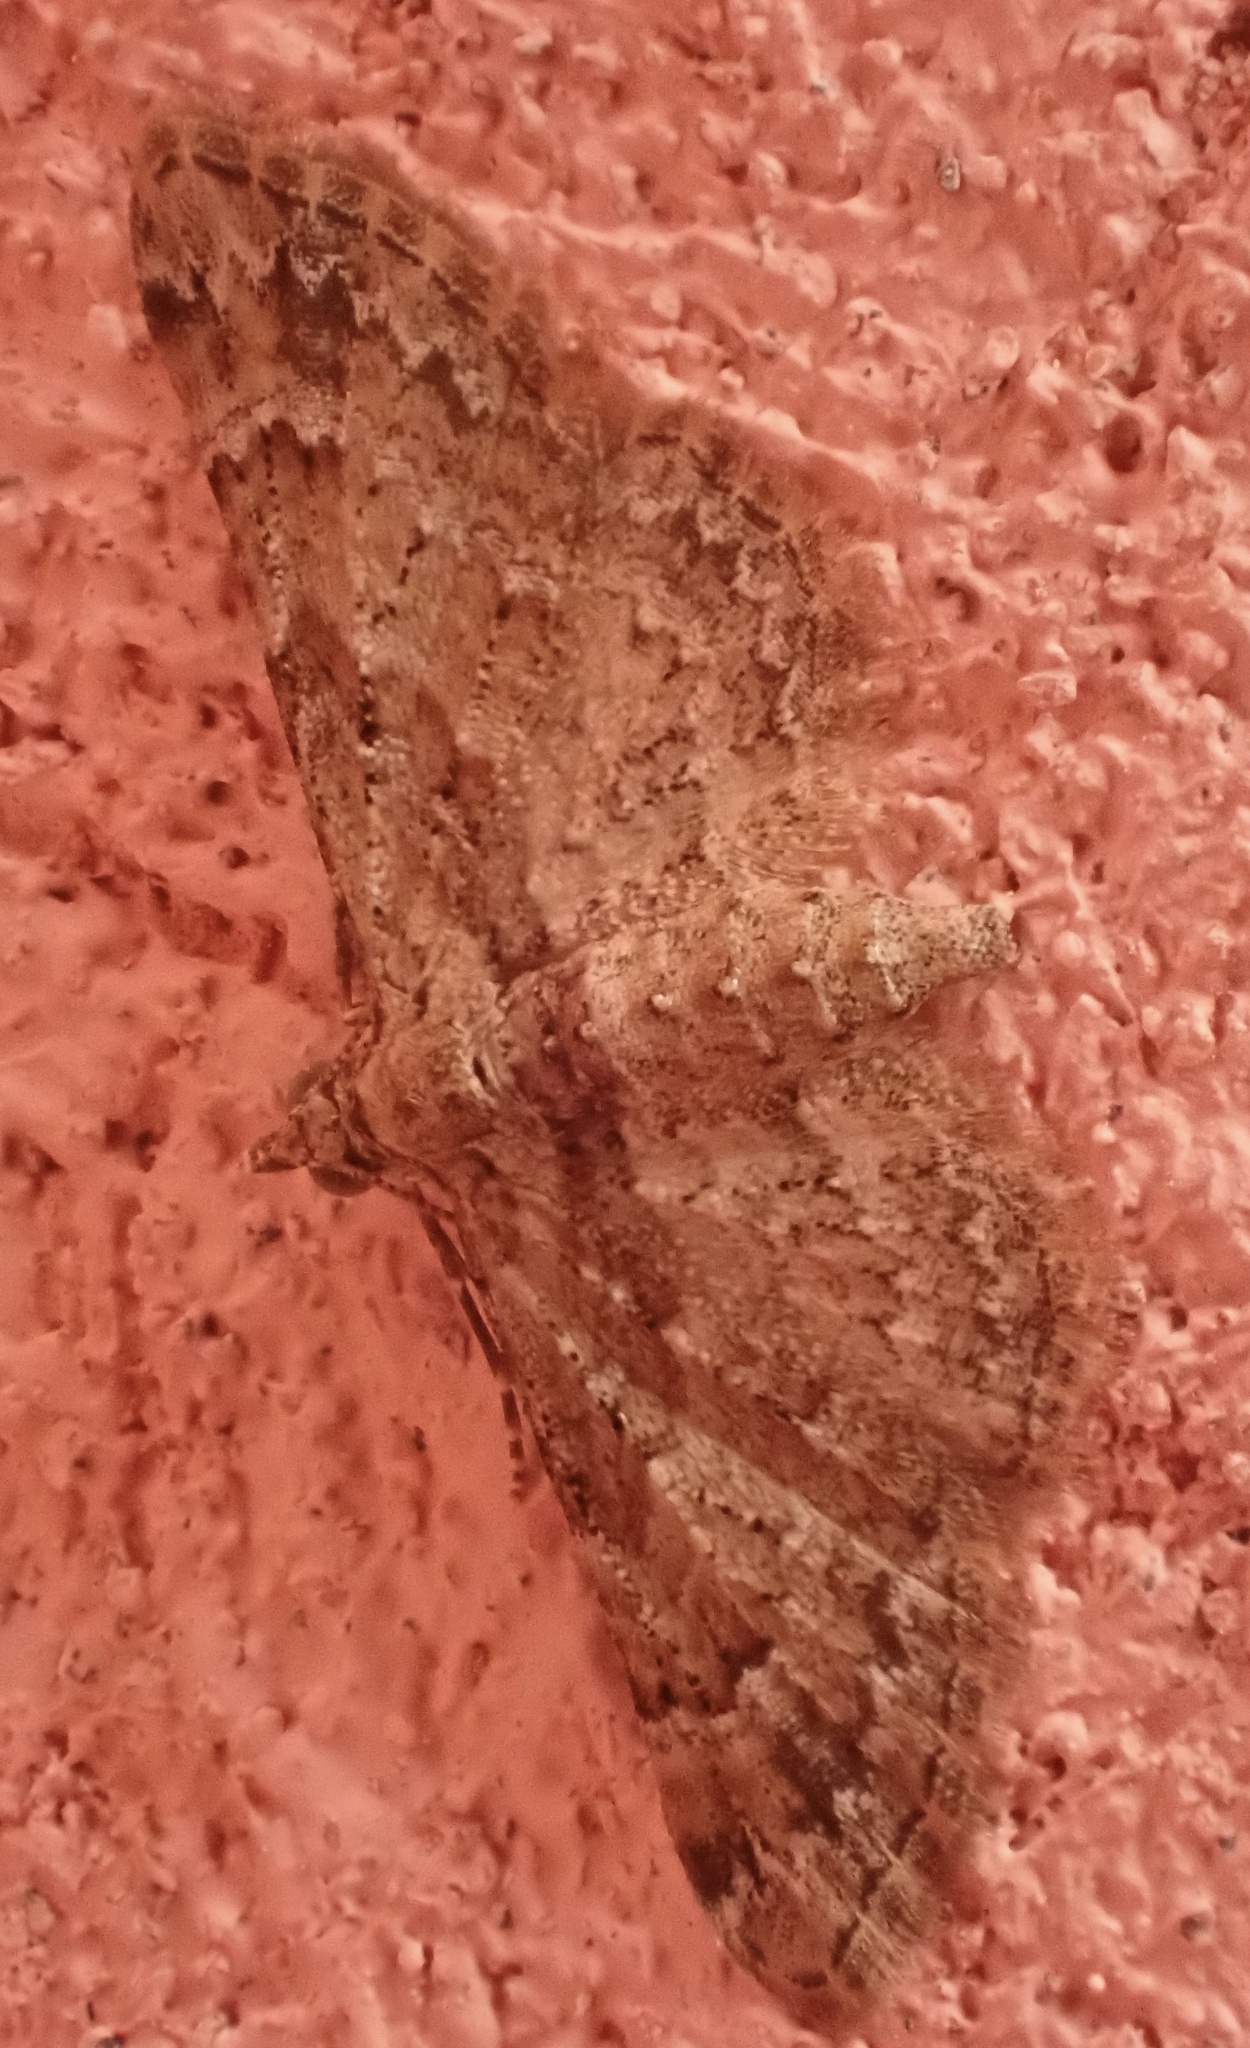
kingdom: Animalia
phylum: Arthropoda
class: Insecta
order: Lepidoptera
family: Geometridae
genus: Gymnoscelis
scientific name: Gymnoscelis rufifasciata
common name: Double-striped pug
